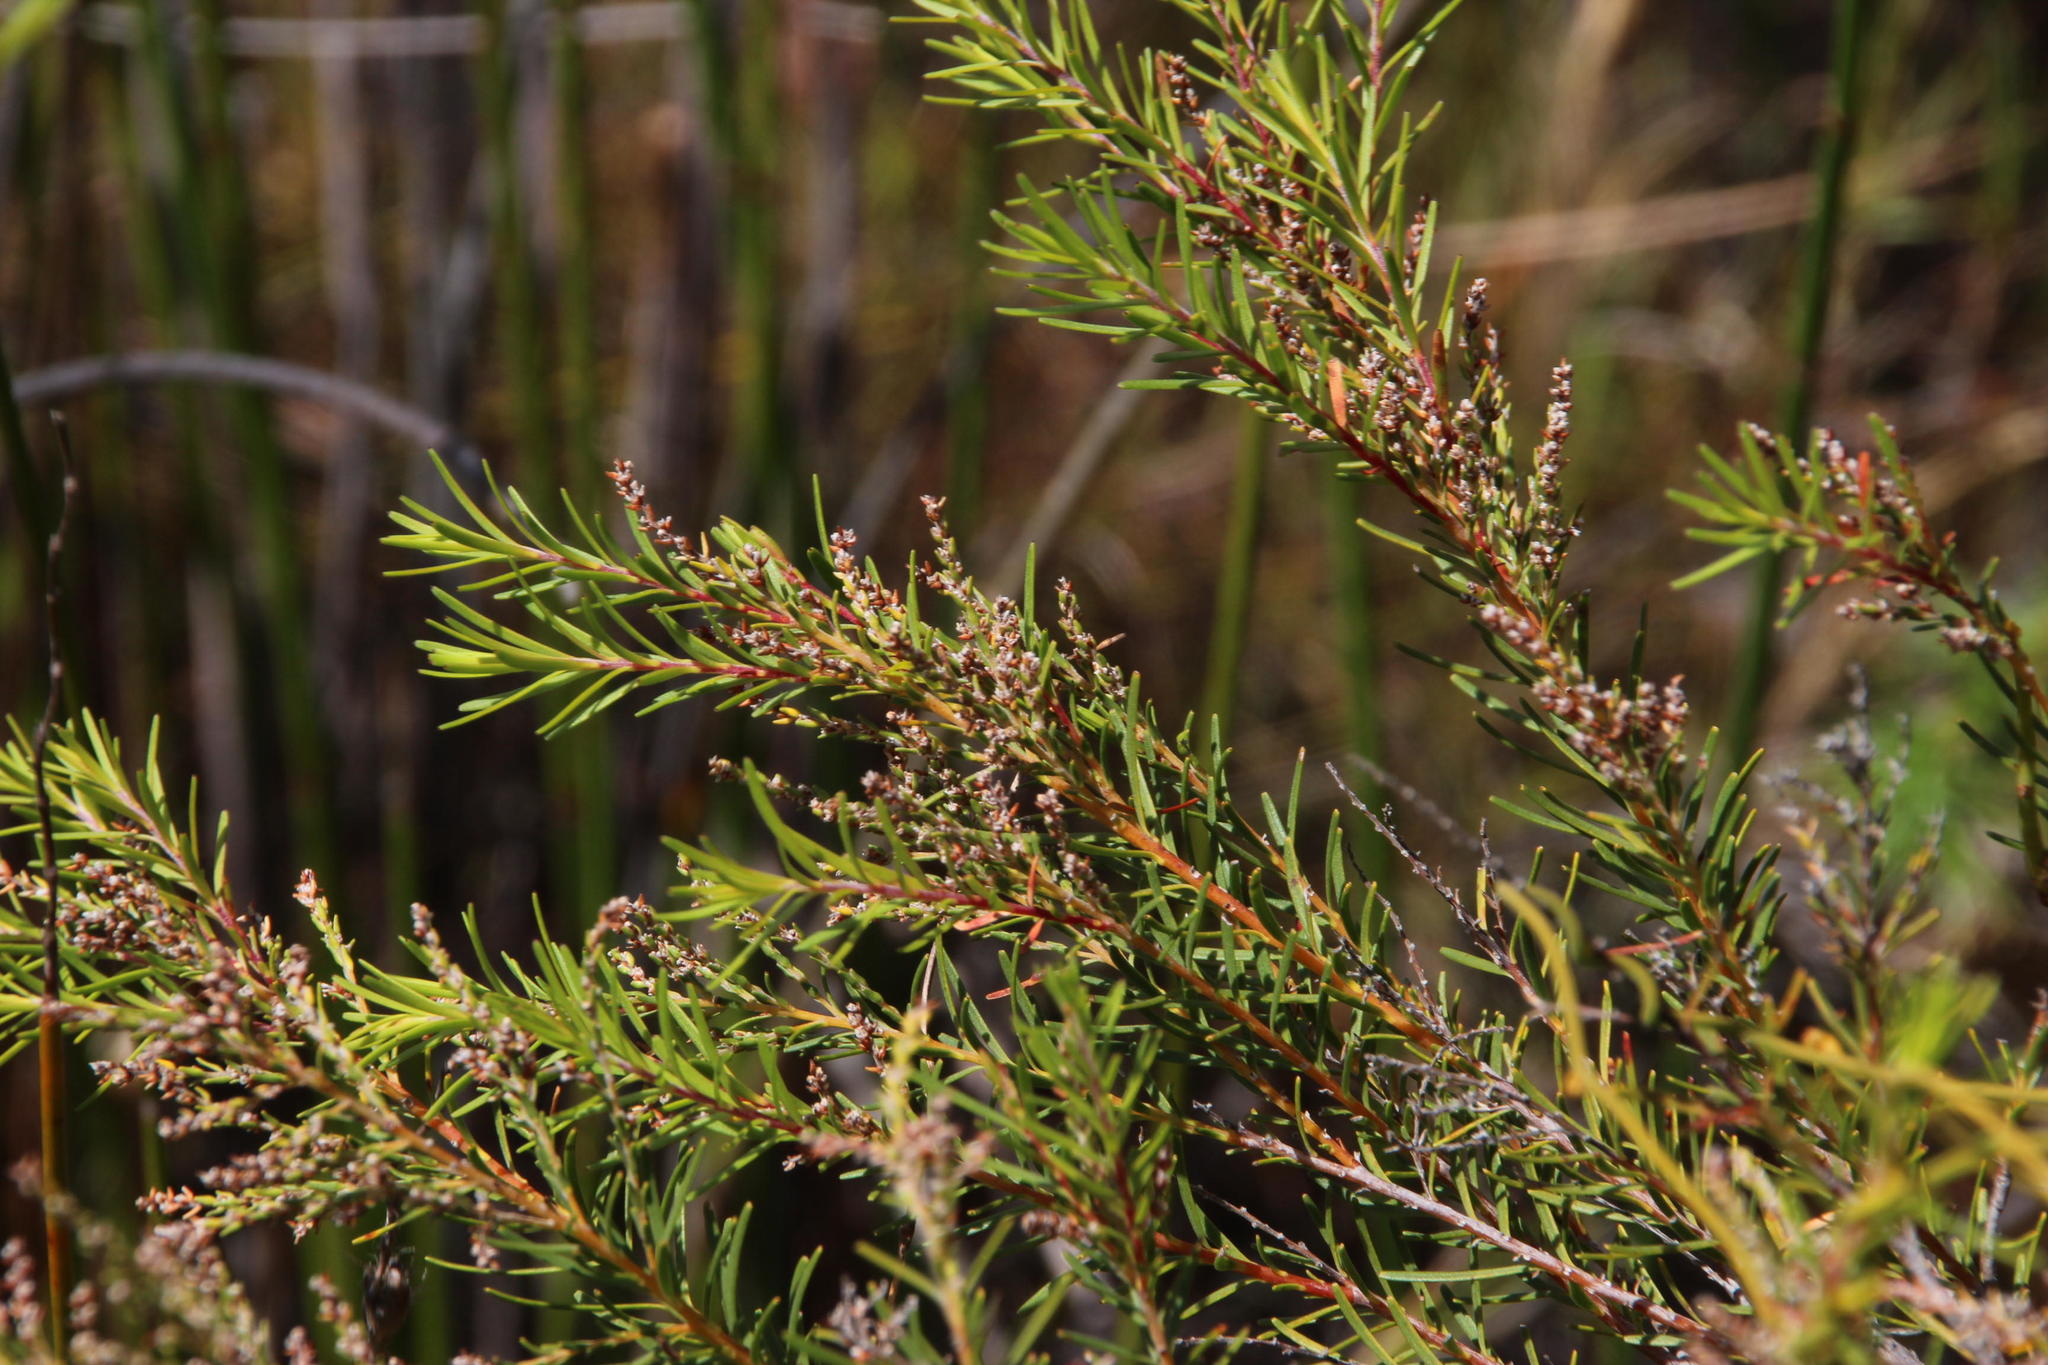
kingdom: Plantae
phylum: Tracheophyta
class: Magnoliopsida
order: Bruniales
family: Bruniaceae
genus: Brunia
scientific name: Brunia africana
